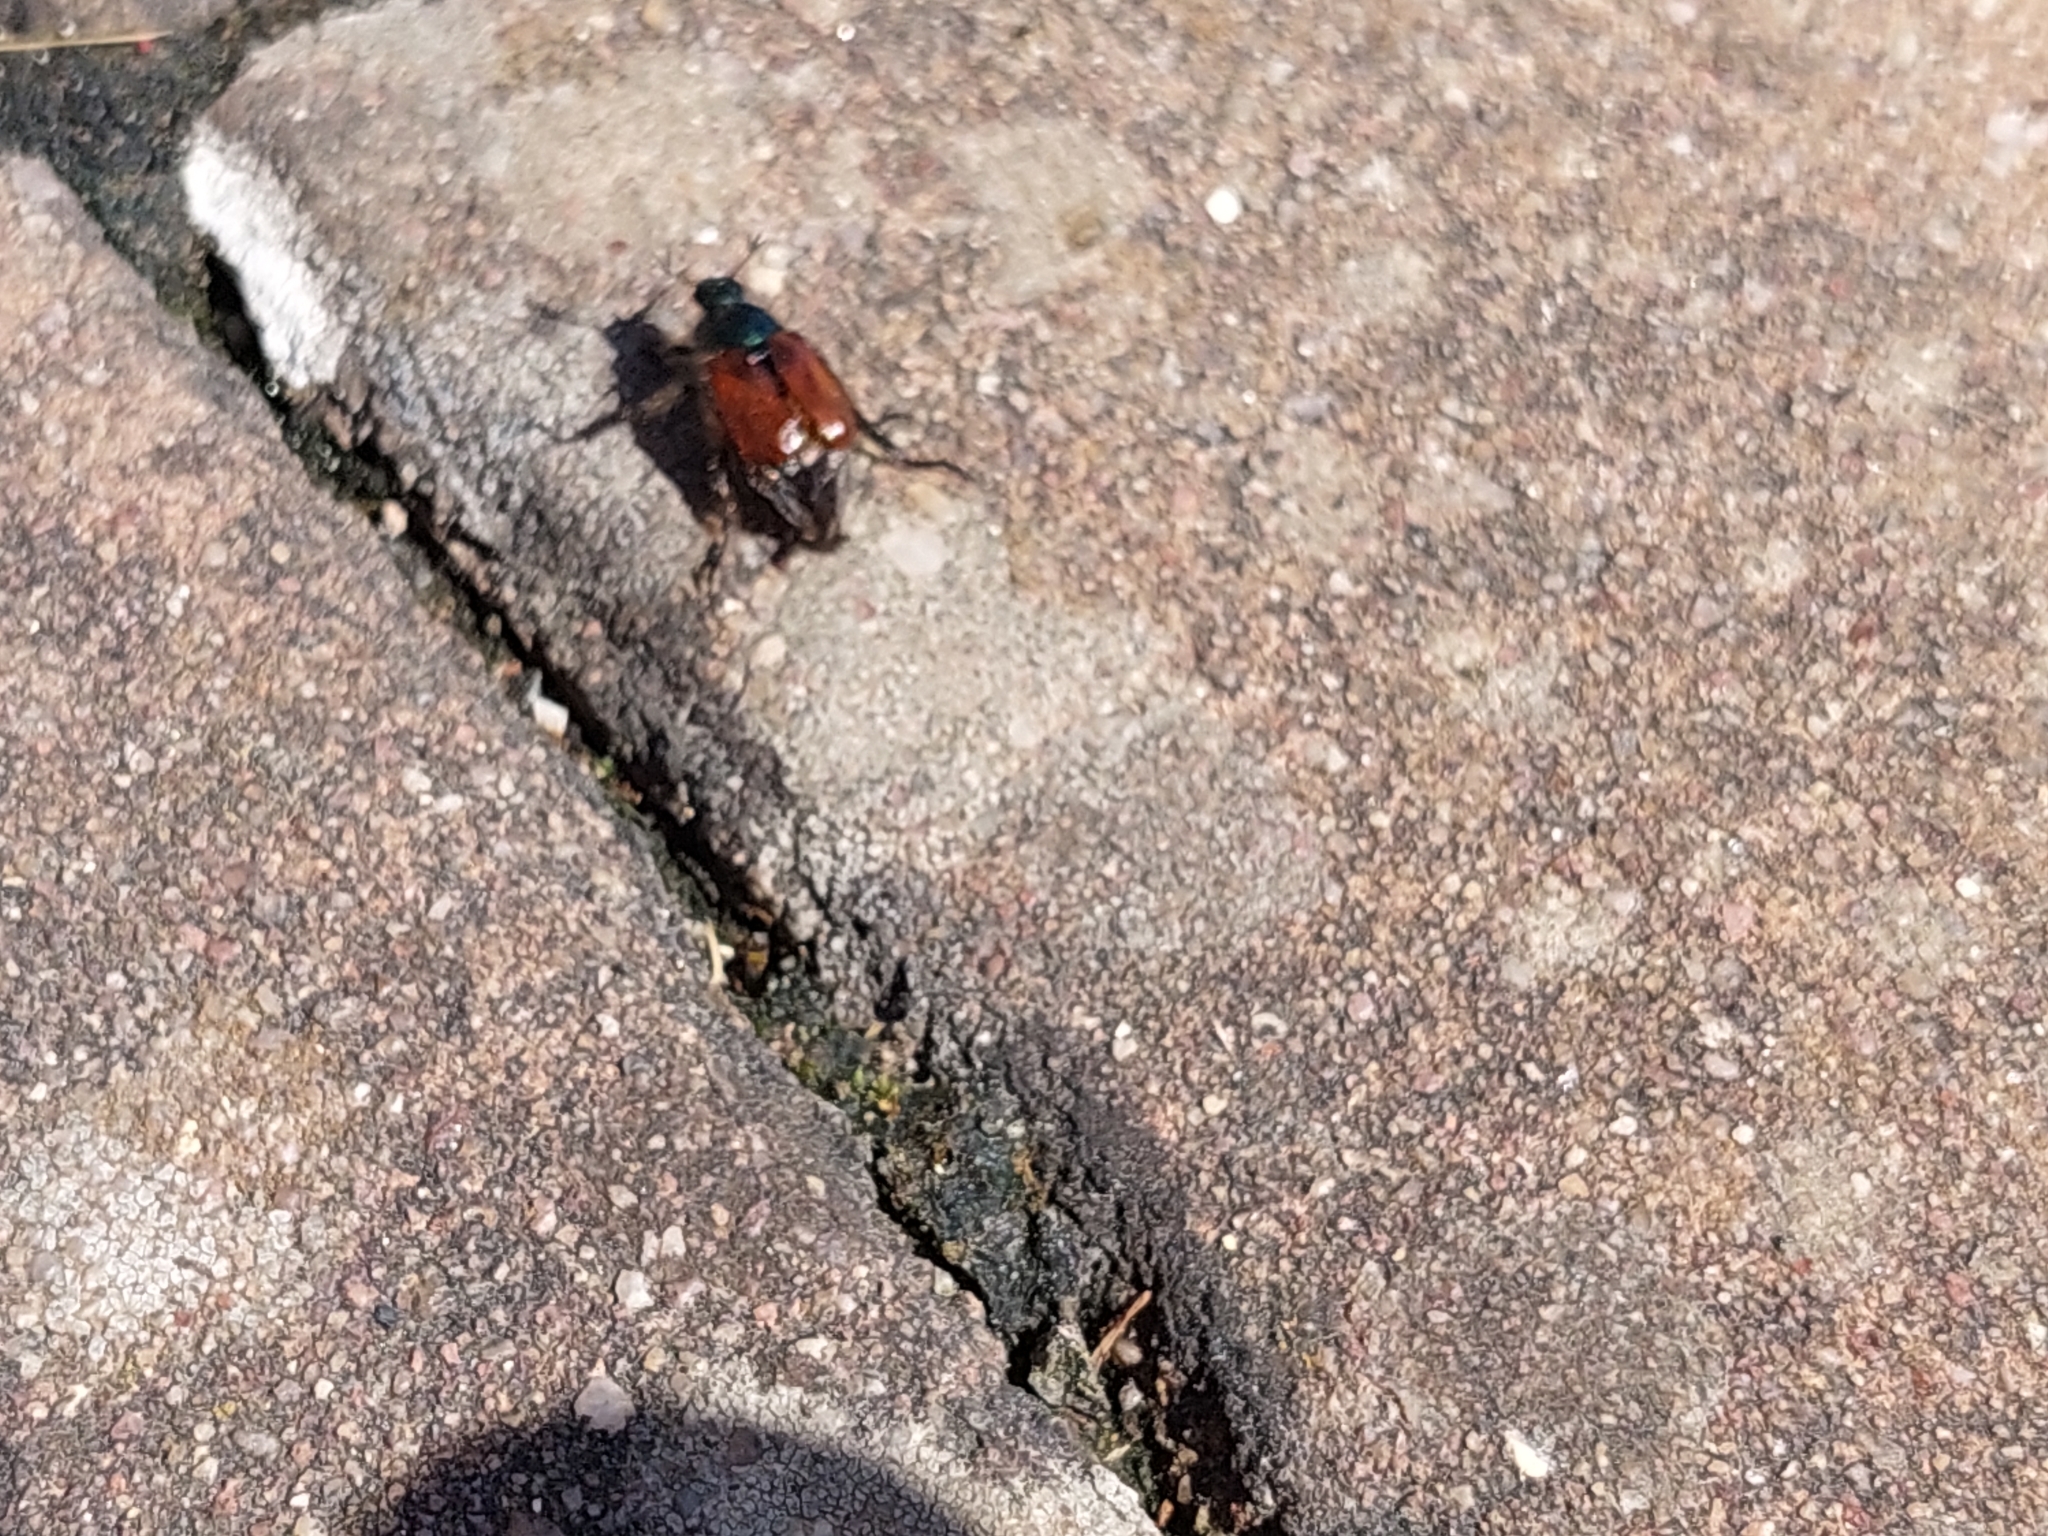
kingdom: Animalia
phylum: Arthropoda
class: Insecta
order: Coleoptera
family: Scarabaeidae
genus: Phyllopertha
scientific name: Phyllopertha horticola
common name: Garden chafer
